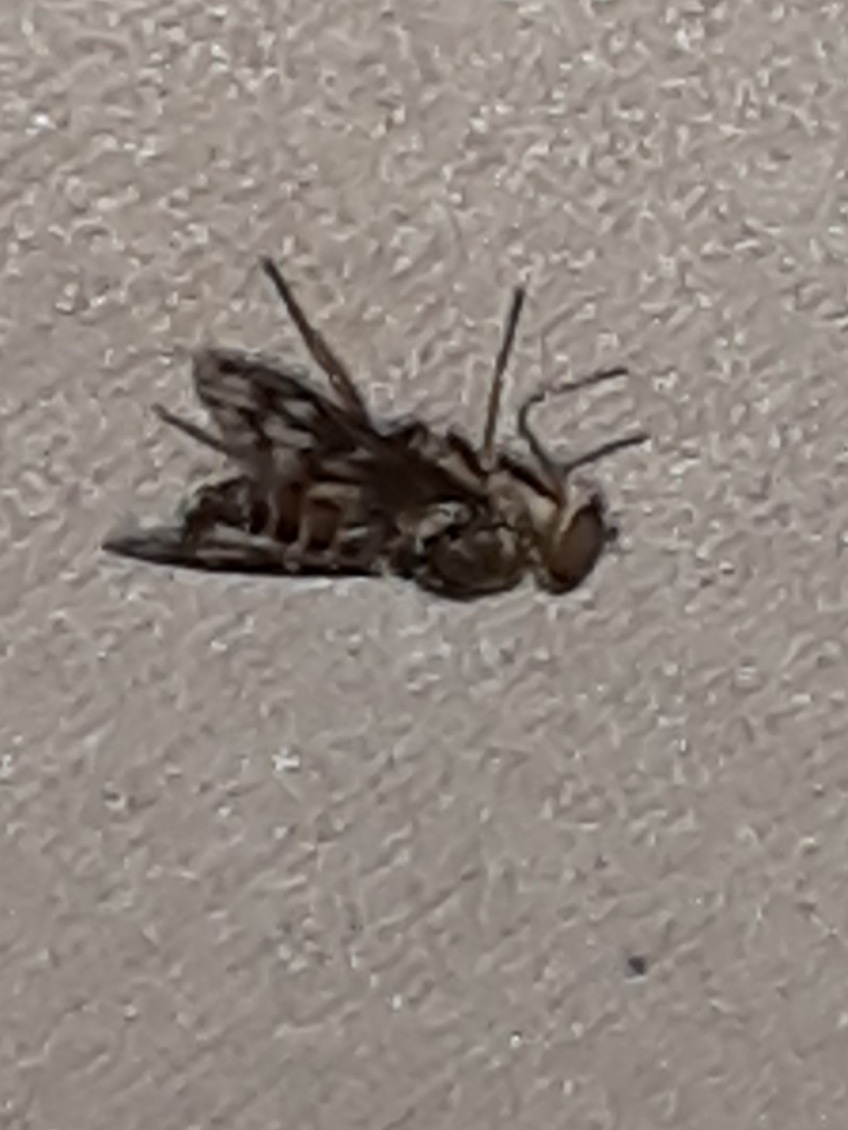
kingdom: Animalia
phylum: Arthropoda
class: Insecta
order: Diptera
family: Rhagionidae
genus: Rhagio
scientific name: Rhagio mystaceus
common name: Common snipe fly
